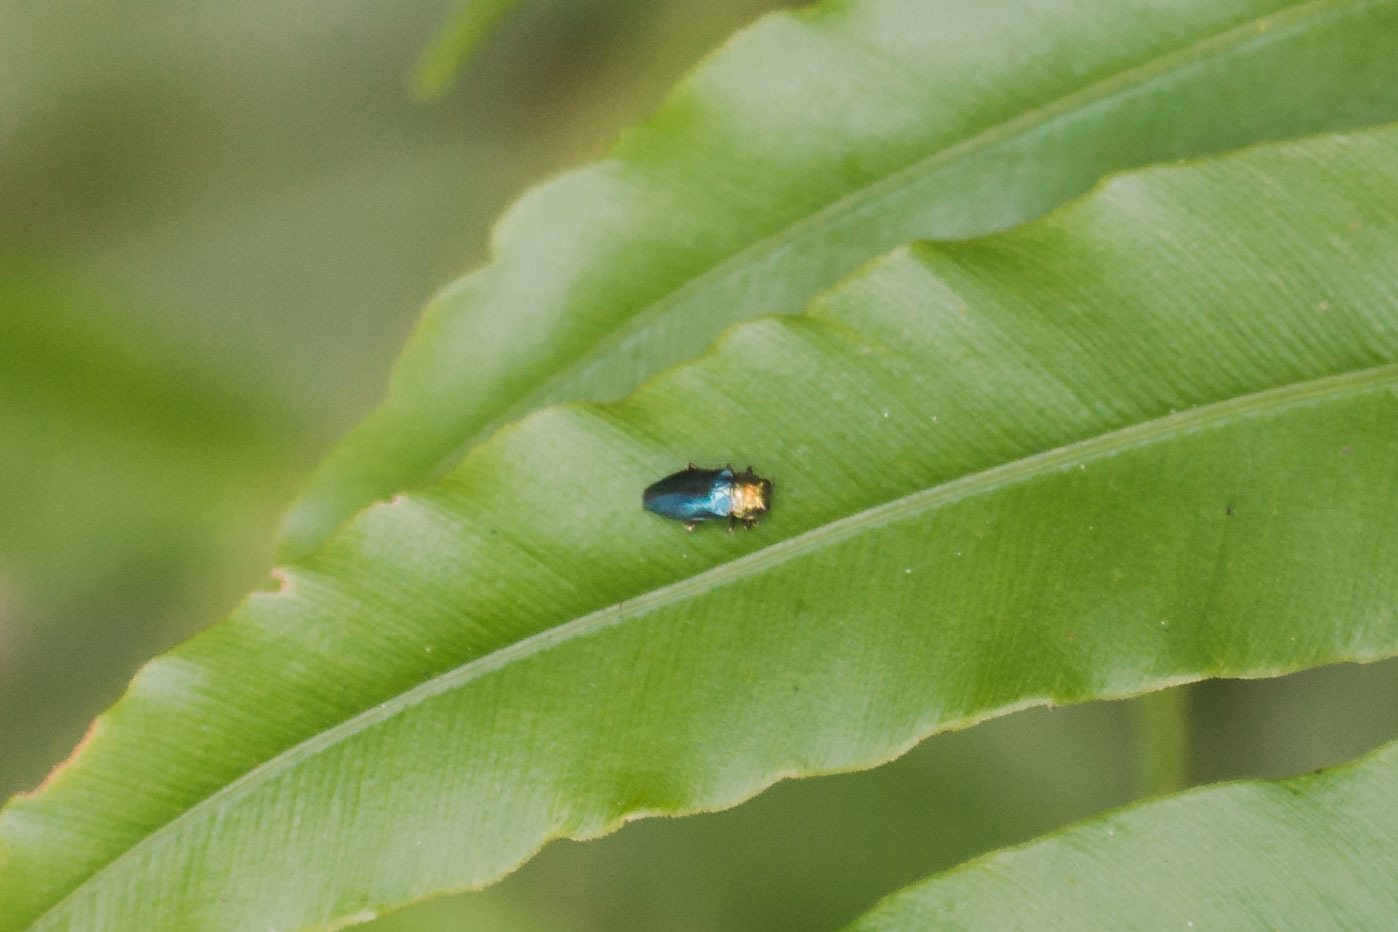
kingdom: Animalia
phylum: Arthropoda
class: Insecta
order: Coleoptera
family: Buprestidae
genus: Endelus
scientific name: Endelus cupido
